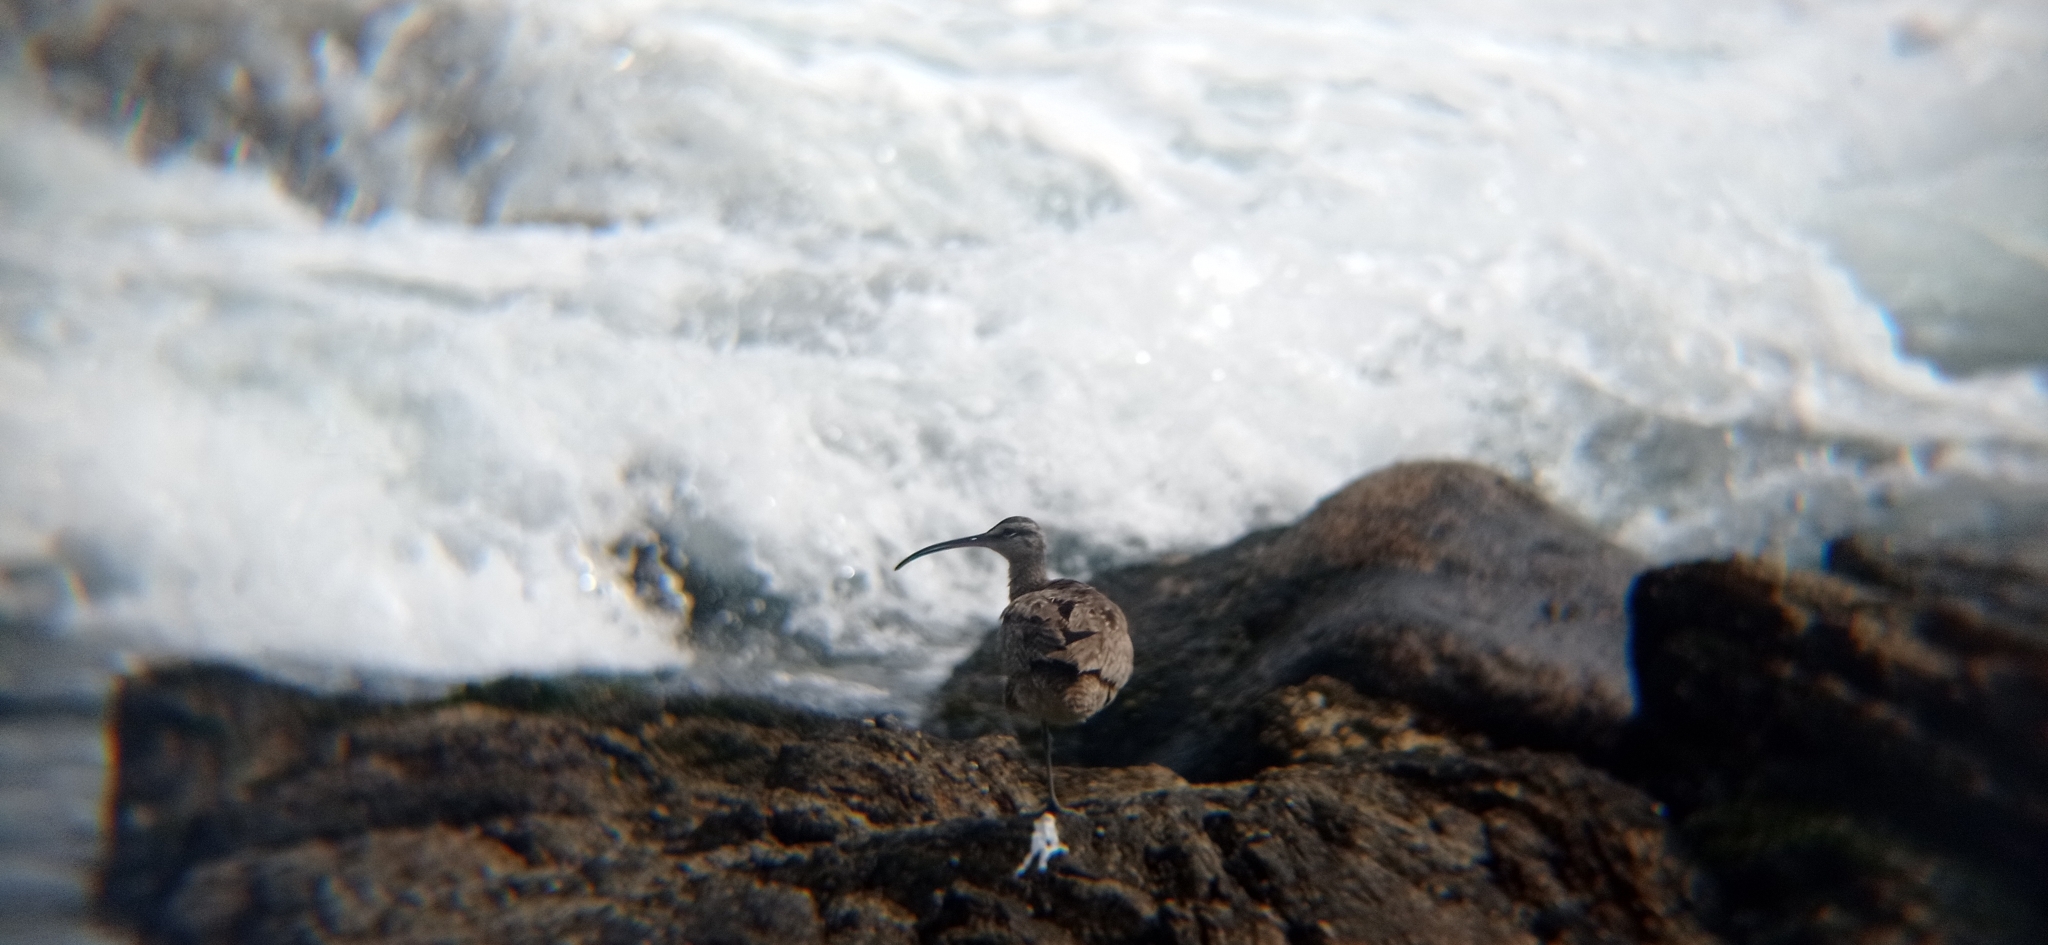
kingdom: Animalia
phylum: Chordata
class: Aves
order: Charadriiformes
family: Scolopacidae
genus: Numenius
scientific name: Numenius phaeopus
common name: Whimbrel
